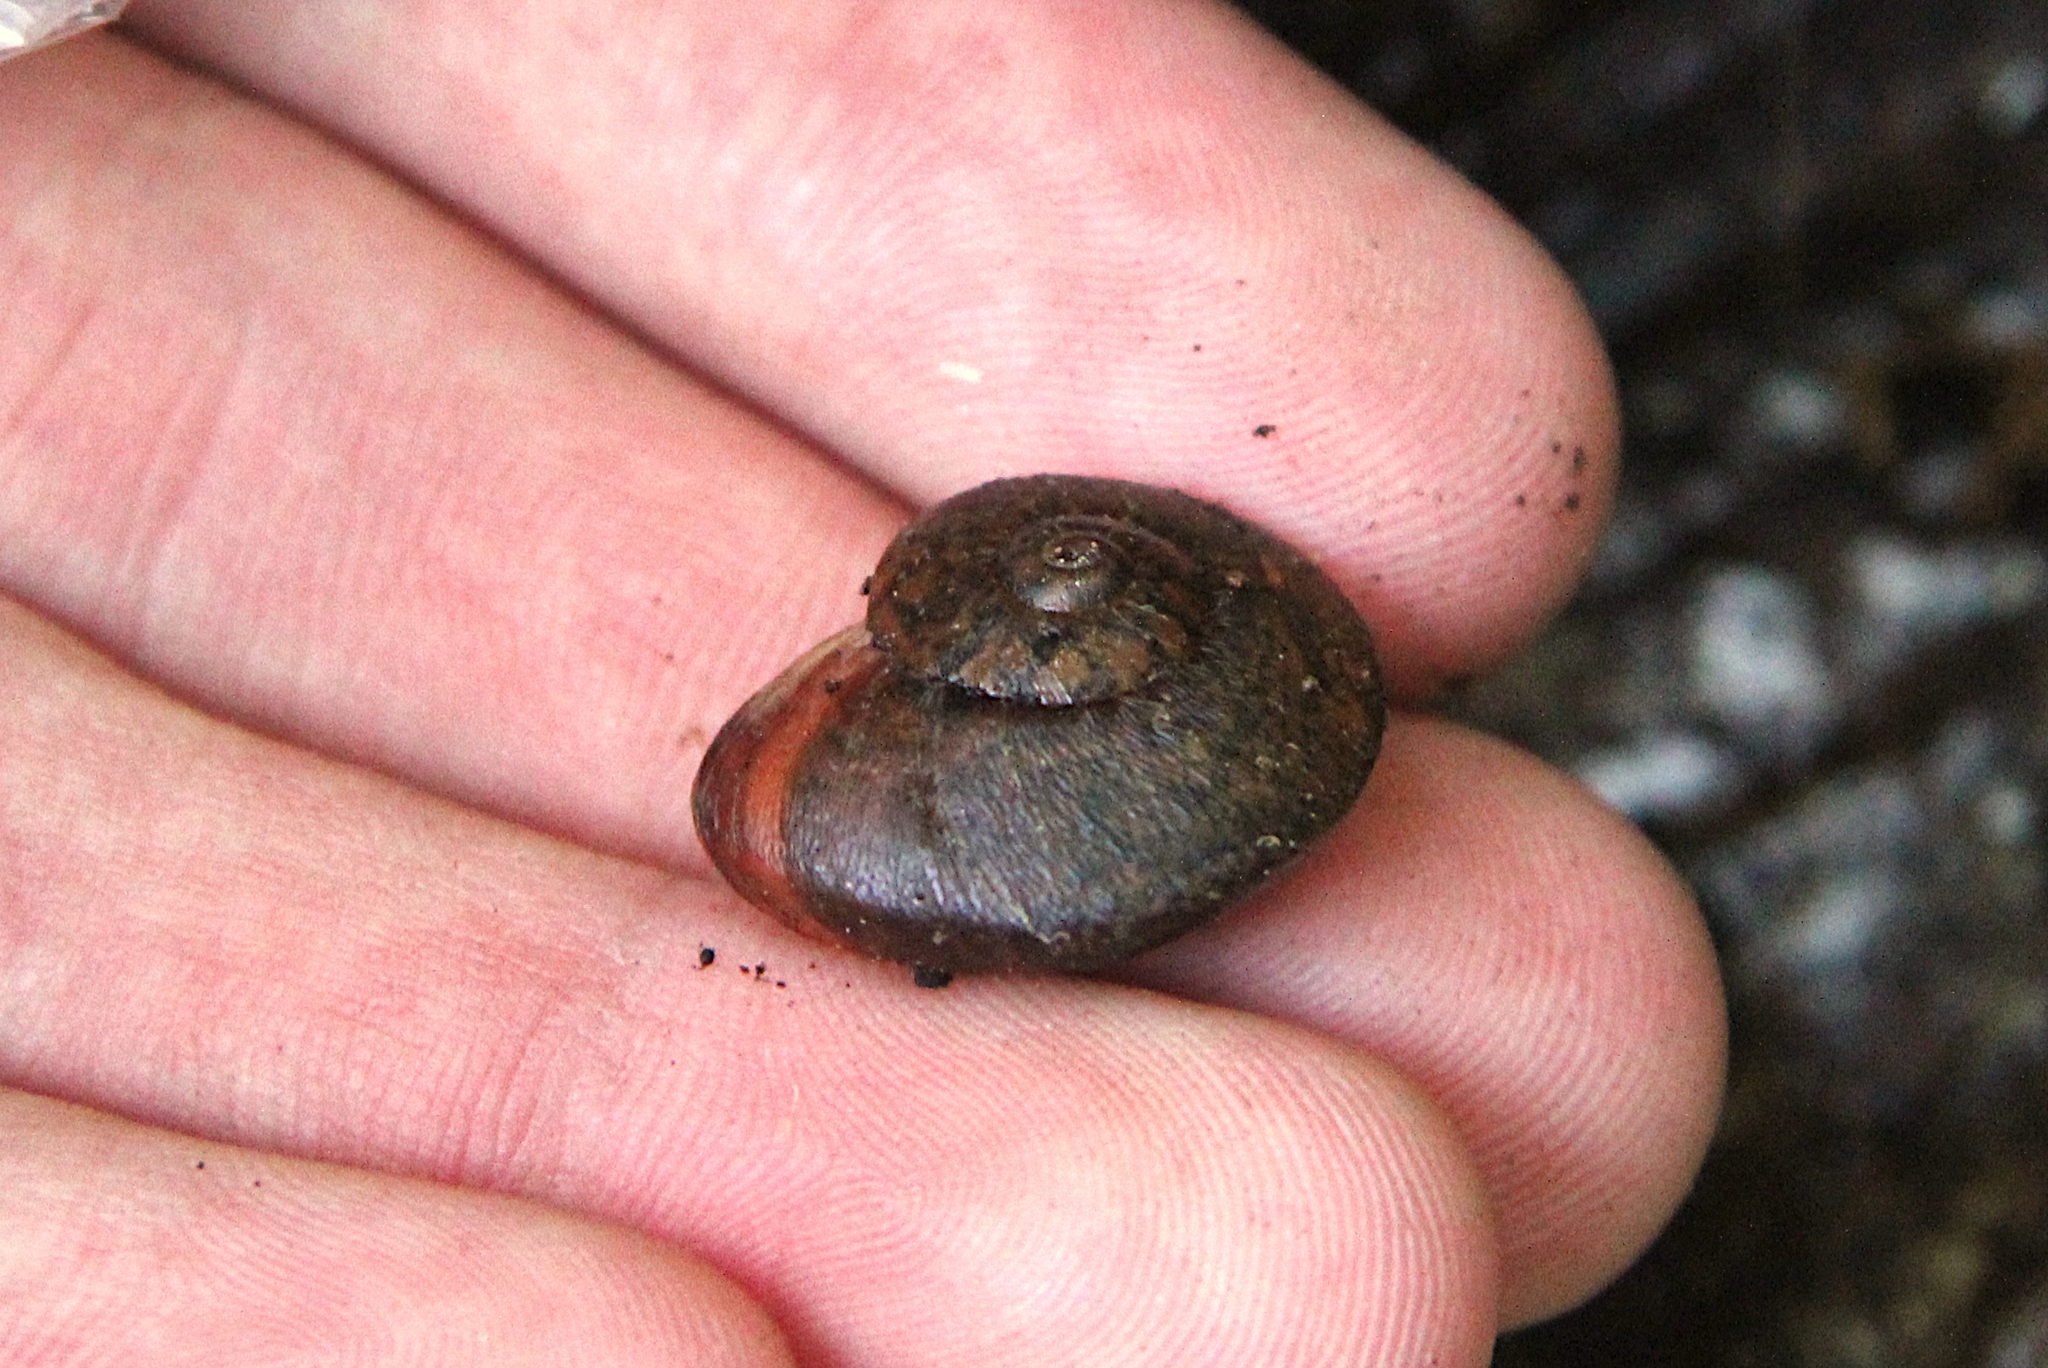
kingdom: Animalia
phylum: Mollusca
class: Gastropoda
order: Stylommatophora
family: Rhytididae
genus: Amborhytida
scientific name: Amborhytida dunniae
